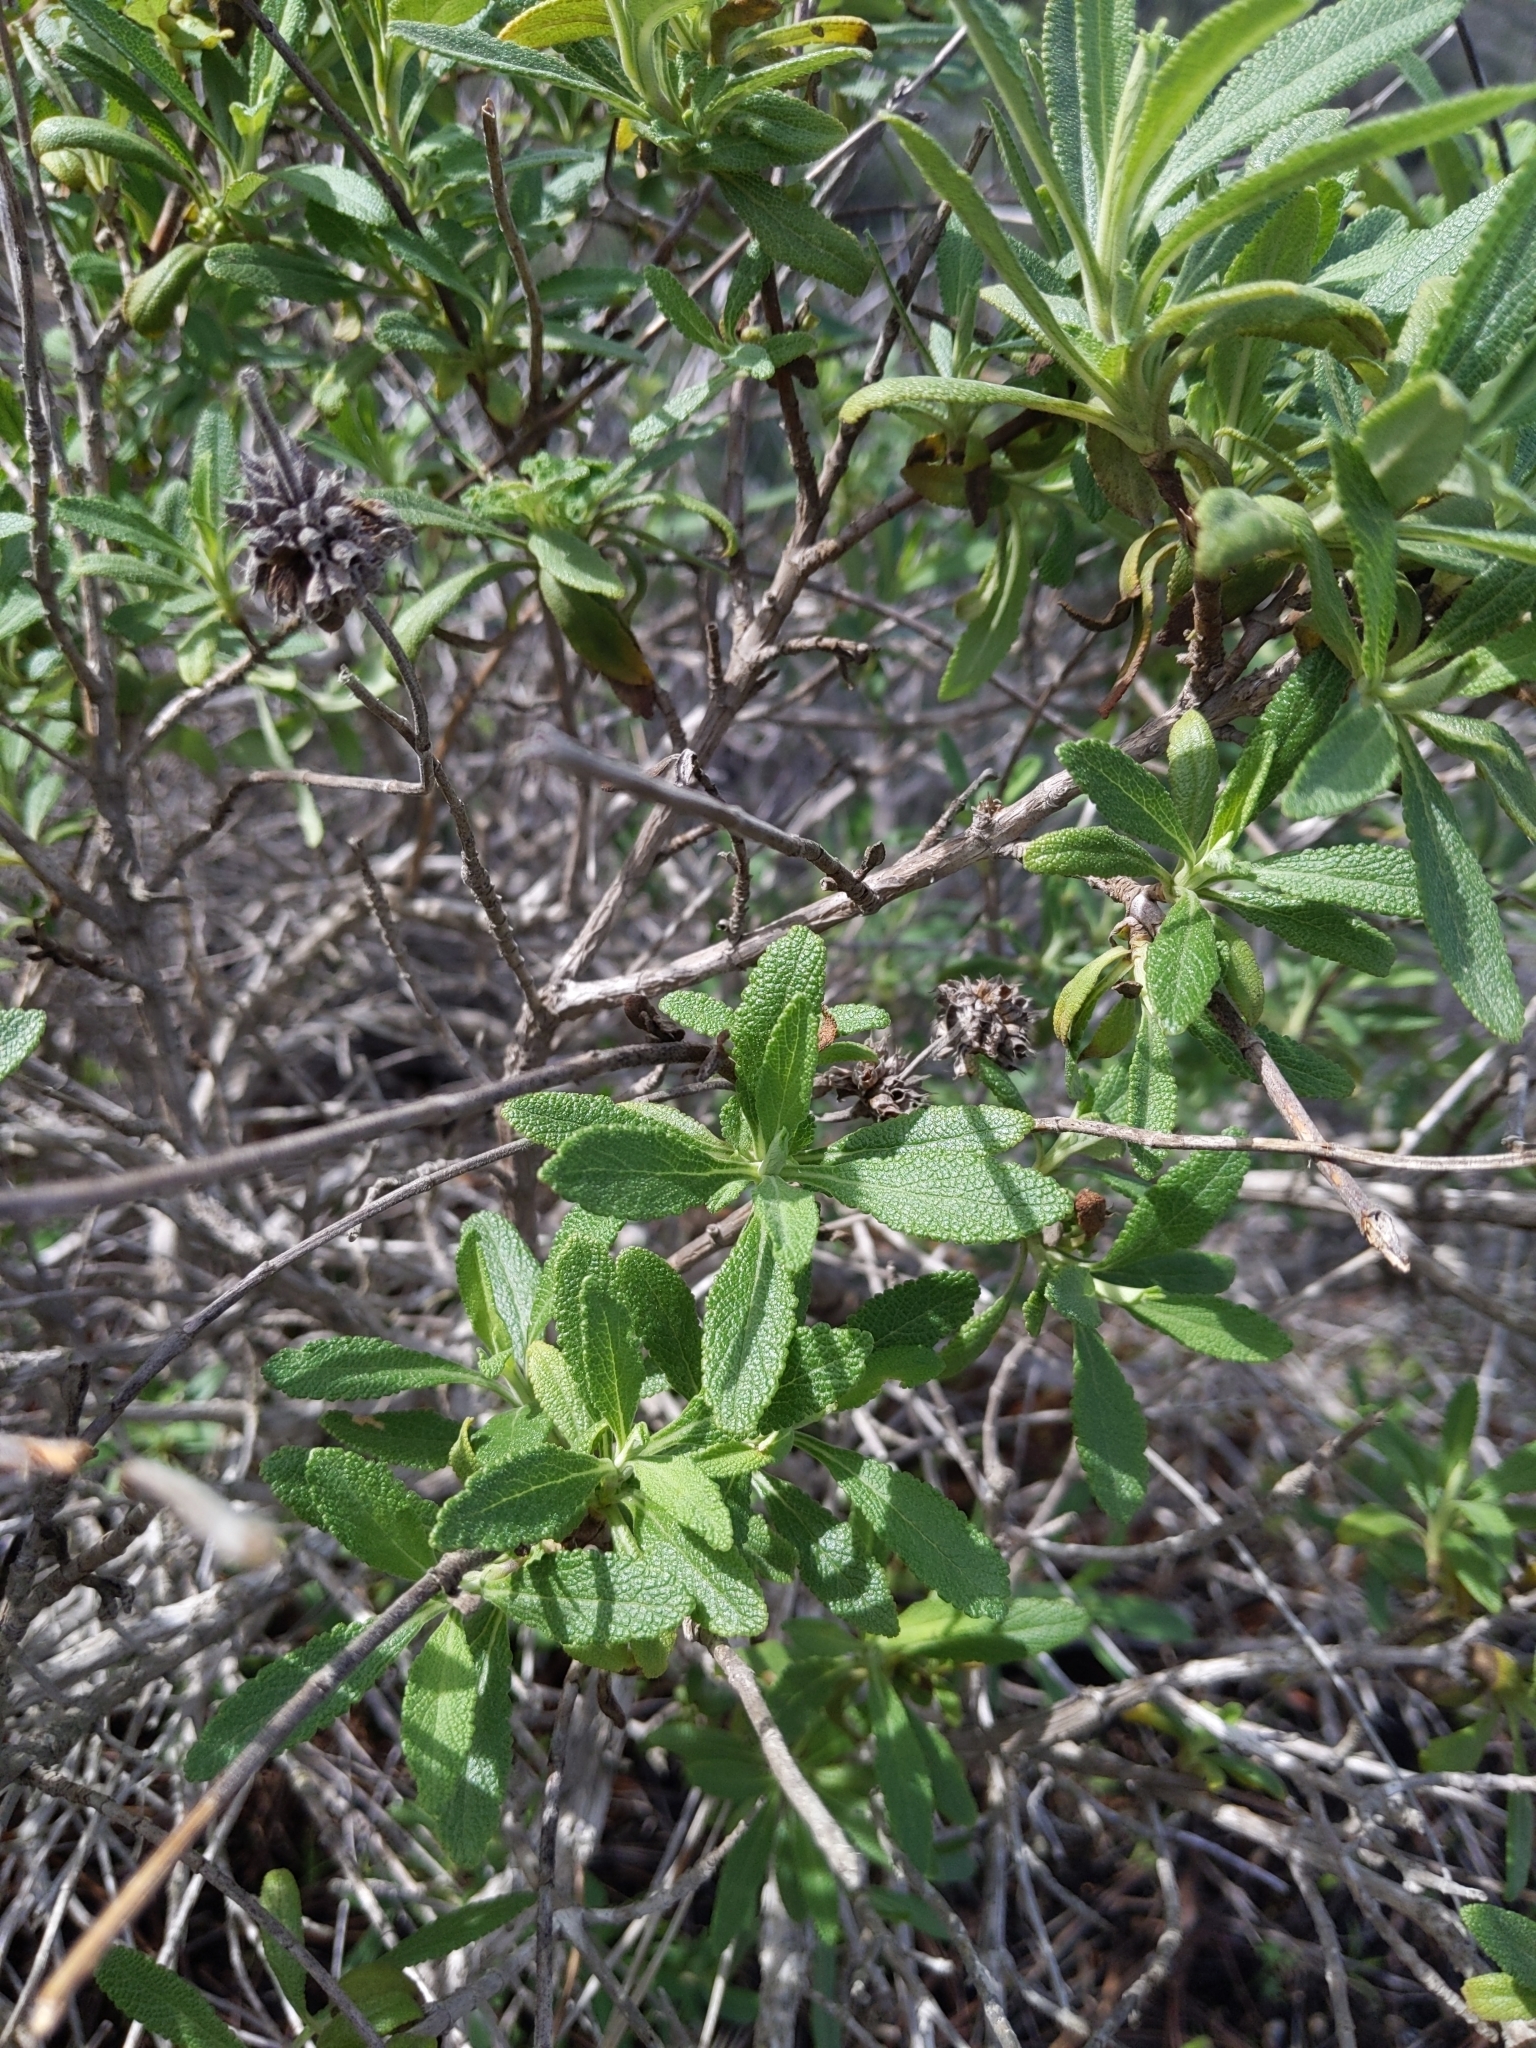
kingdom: Plantae
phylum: Tracheophyta
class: Magnoliopsida
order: Lamiales
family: Lamiaceae
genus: Salvia
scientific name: Salvia mellifera
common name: Black sage
